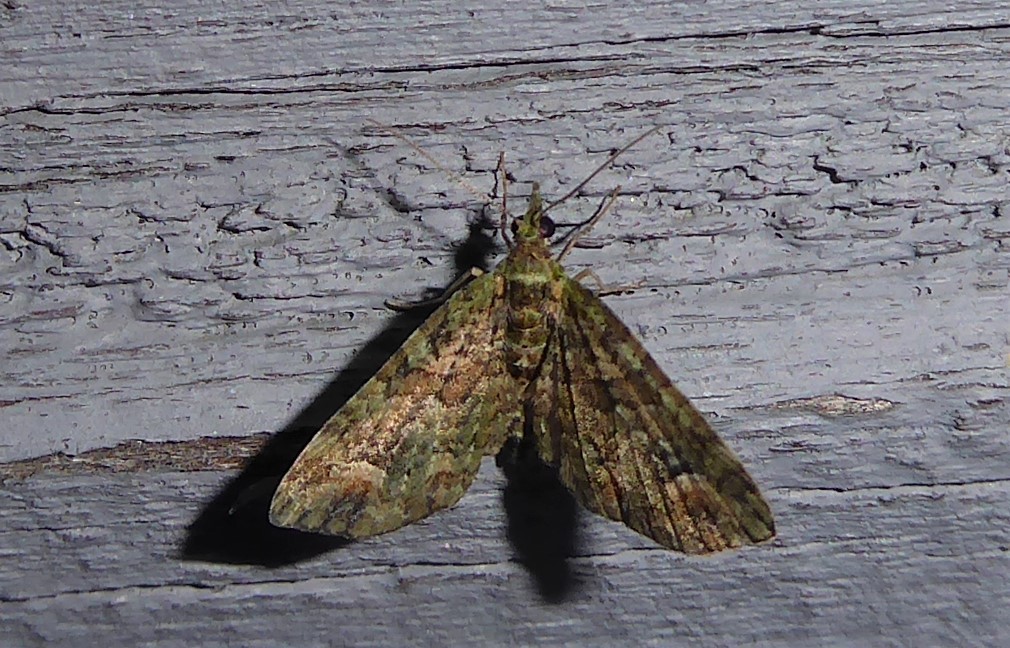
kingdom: Animalia
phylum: Arthropoda
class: Insecta
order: Lepidoptera
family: Geometridae
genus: Idaea
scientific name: Idaea mutanda
